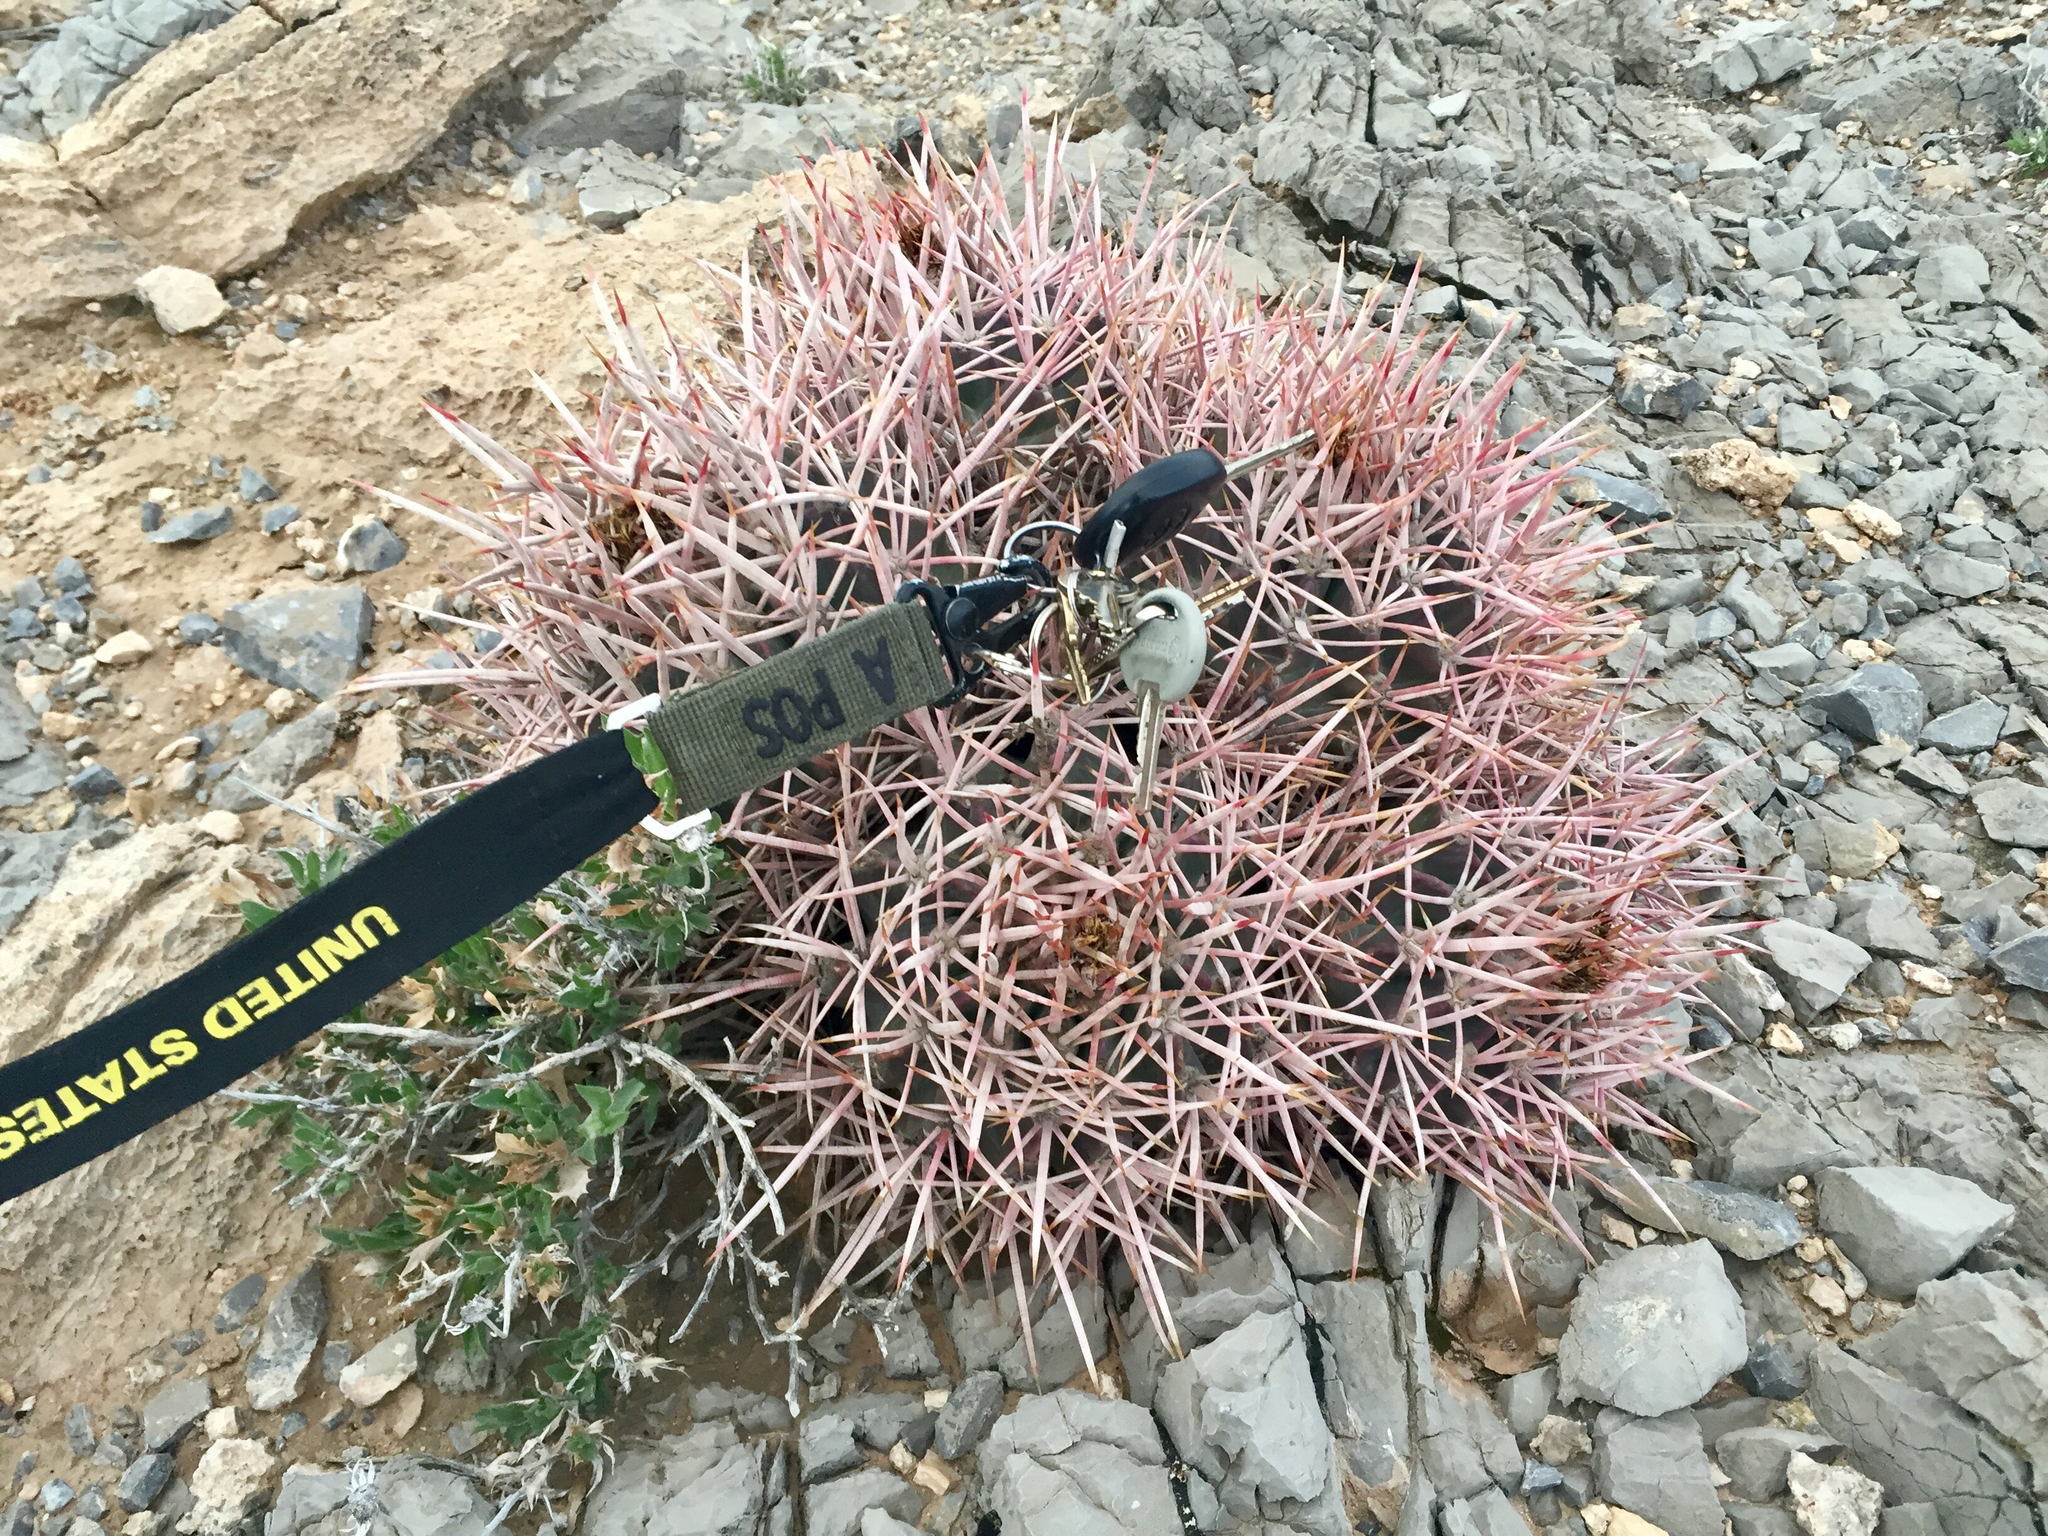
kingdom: Plantae
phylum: Tracheophyta
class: Magnoliopsida
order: Caryophyllales
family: Cactaceae
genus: Echinocactus
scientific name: Echinocactus polycephalus
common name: Cottontop cactus
